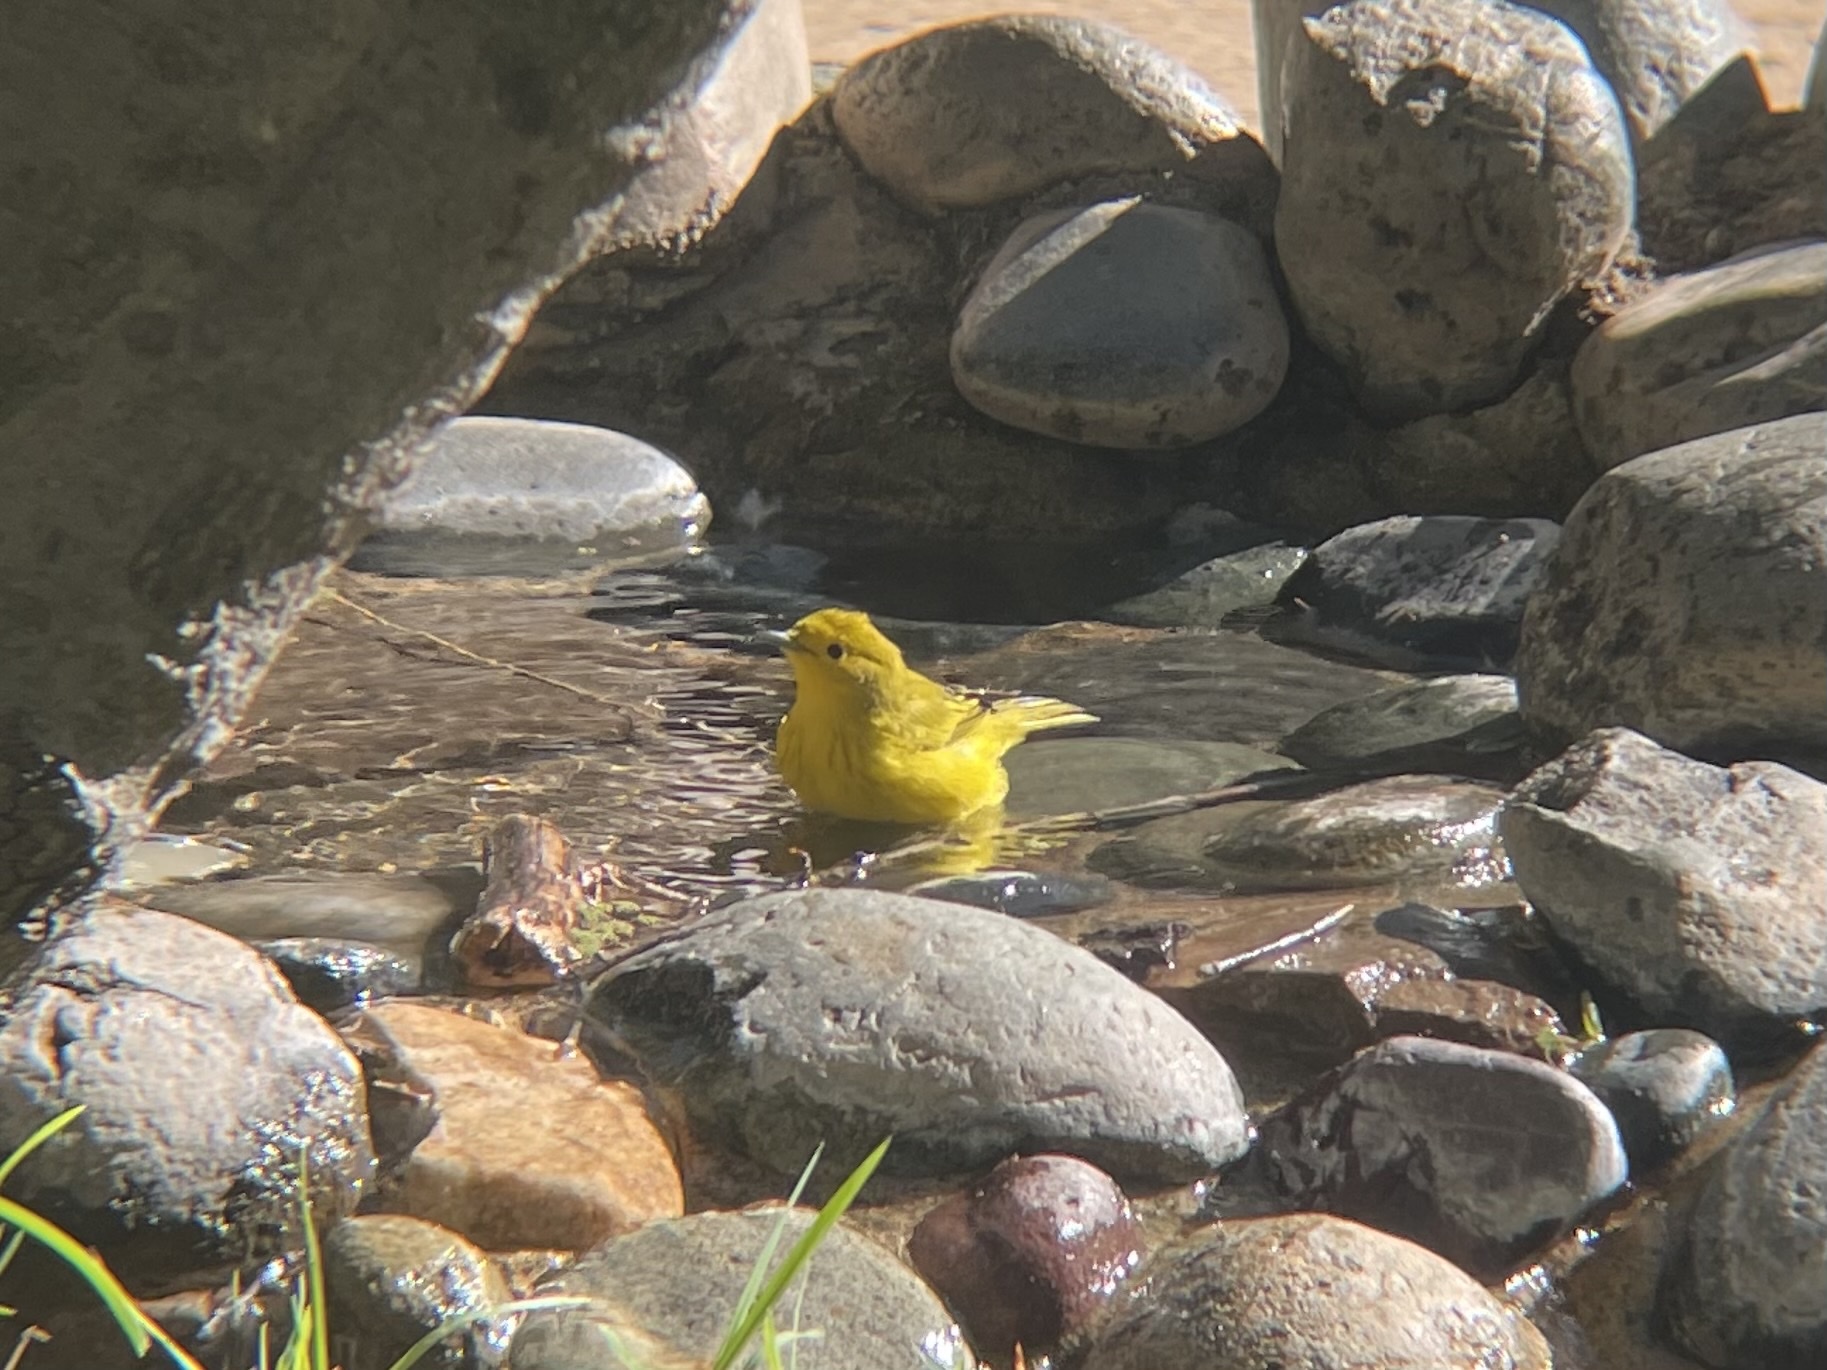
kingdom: Animalia
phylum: Chordata
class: Aves
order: Passeriformes
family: Parulidae
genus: Setophaga
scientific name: Setophaga petechia
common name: Yellow warbler
